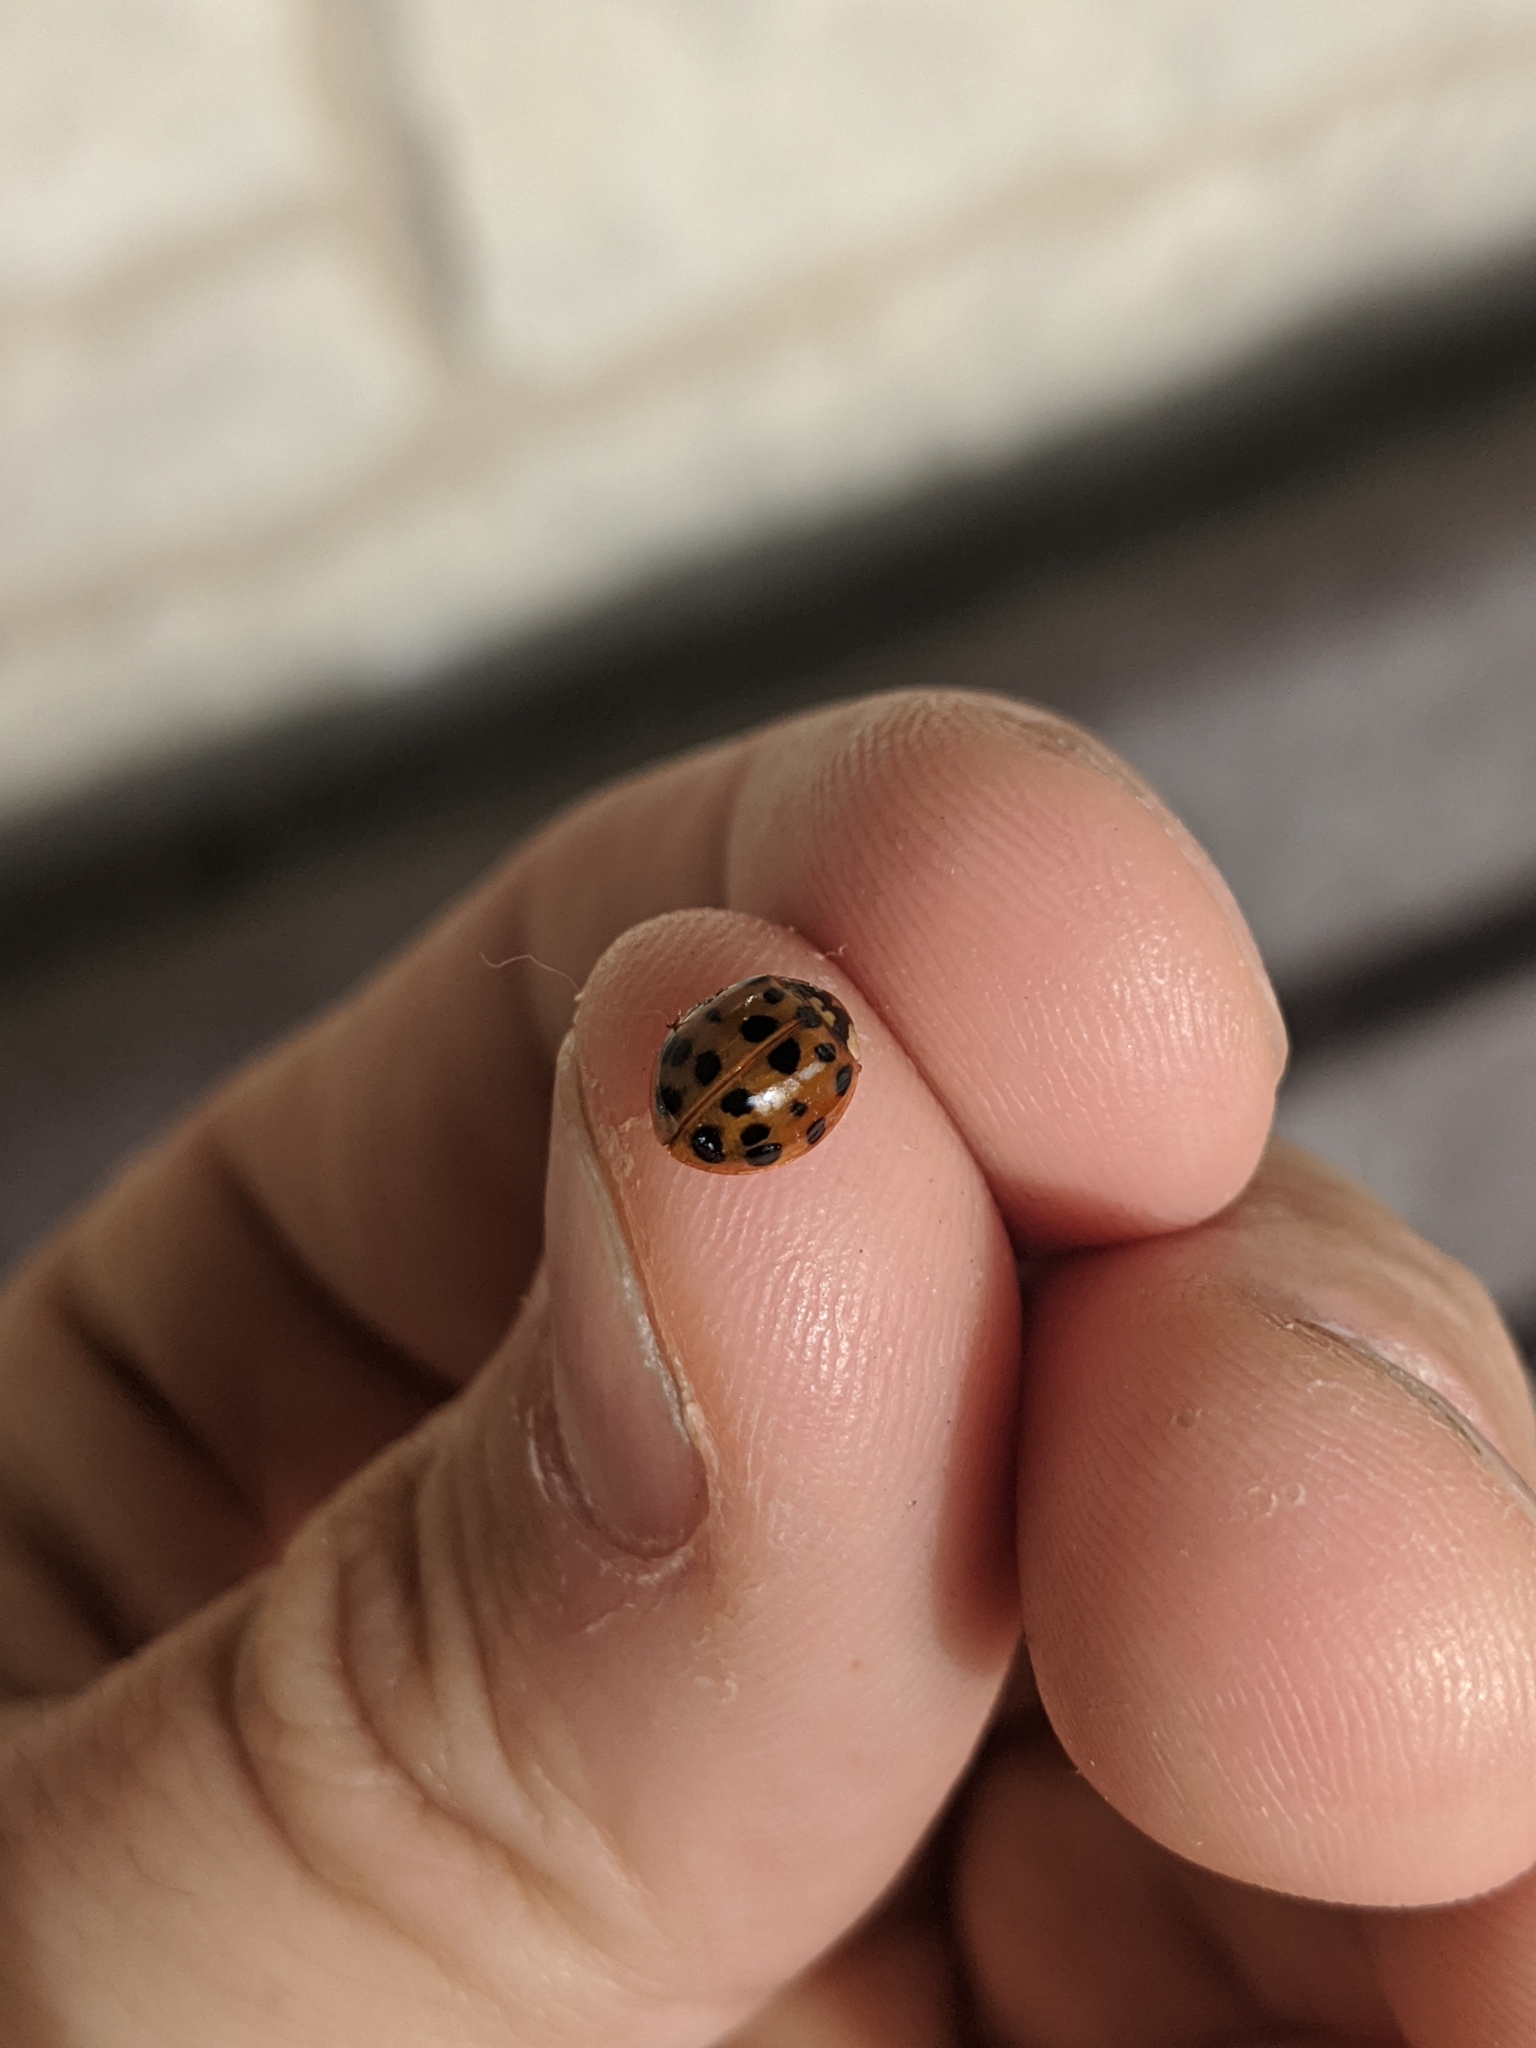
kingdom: Animalia
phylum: Arthropoda
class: Insecta
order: Coleoptera
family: Coccinellidae
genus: Harmonia
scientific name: Harmonia axyridis
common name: Harlequin ladybird
